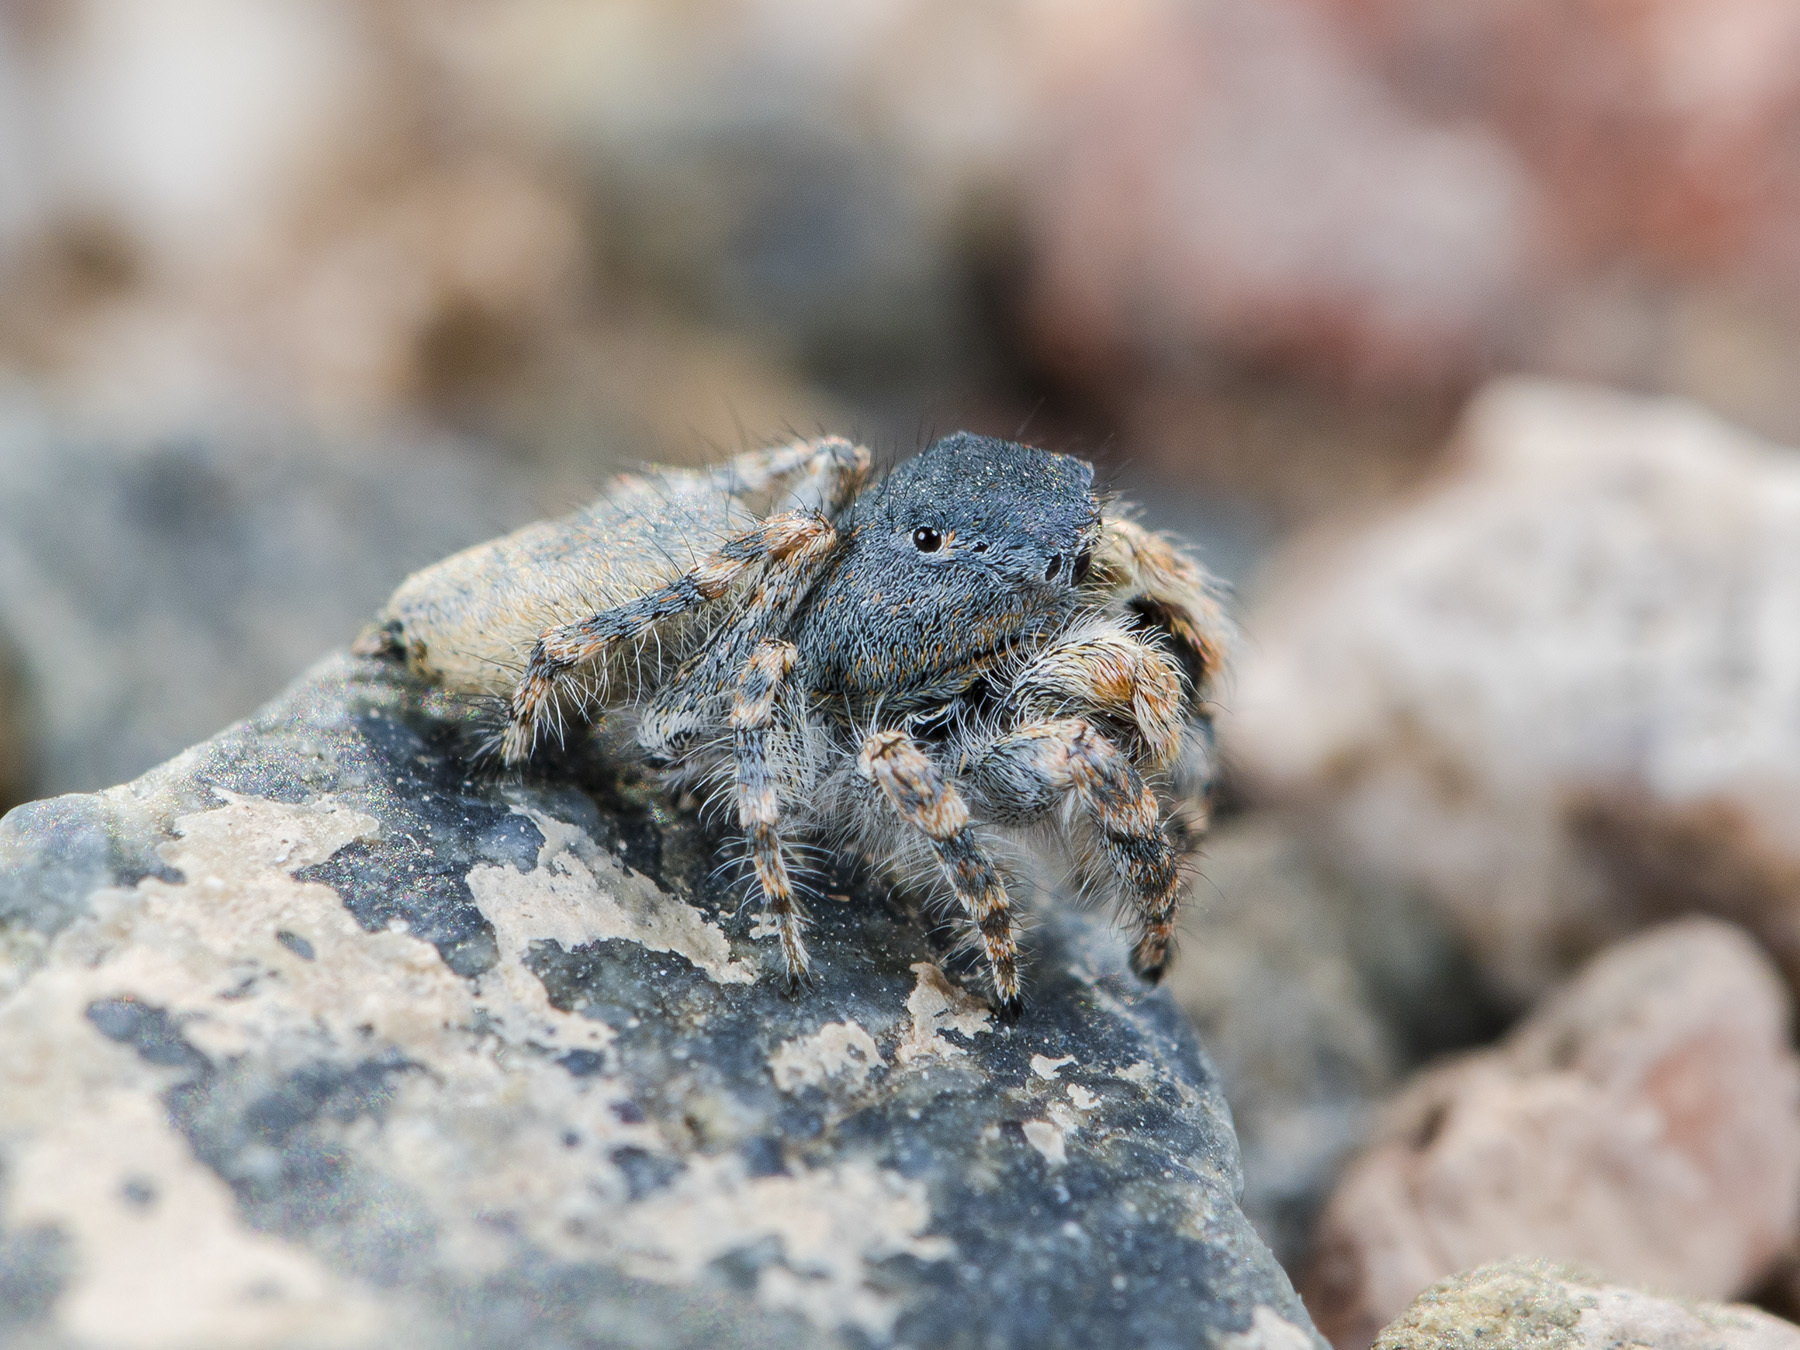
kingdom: Animalia
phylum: Arthropoda
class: Arachnida
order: Araneae
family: Salticidae
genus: Yllenus
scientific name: Yllenus zyuzini
